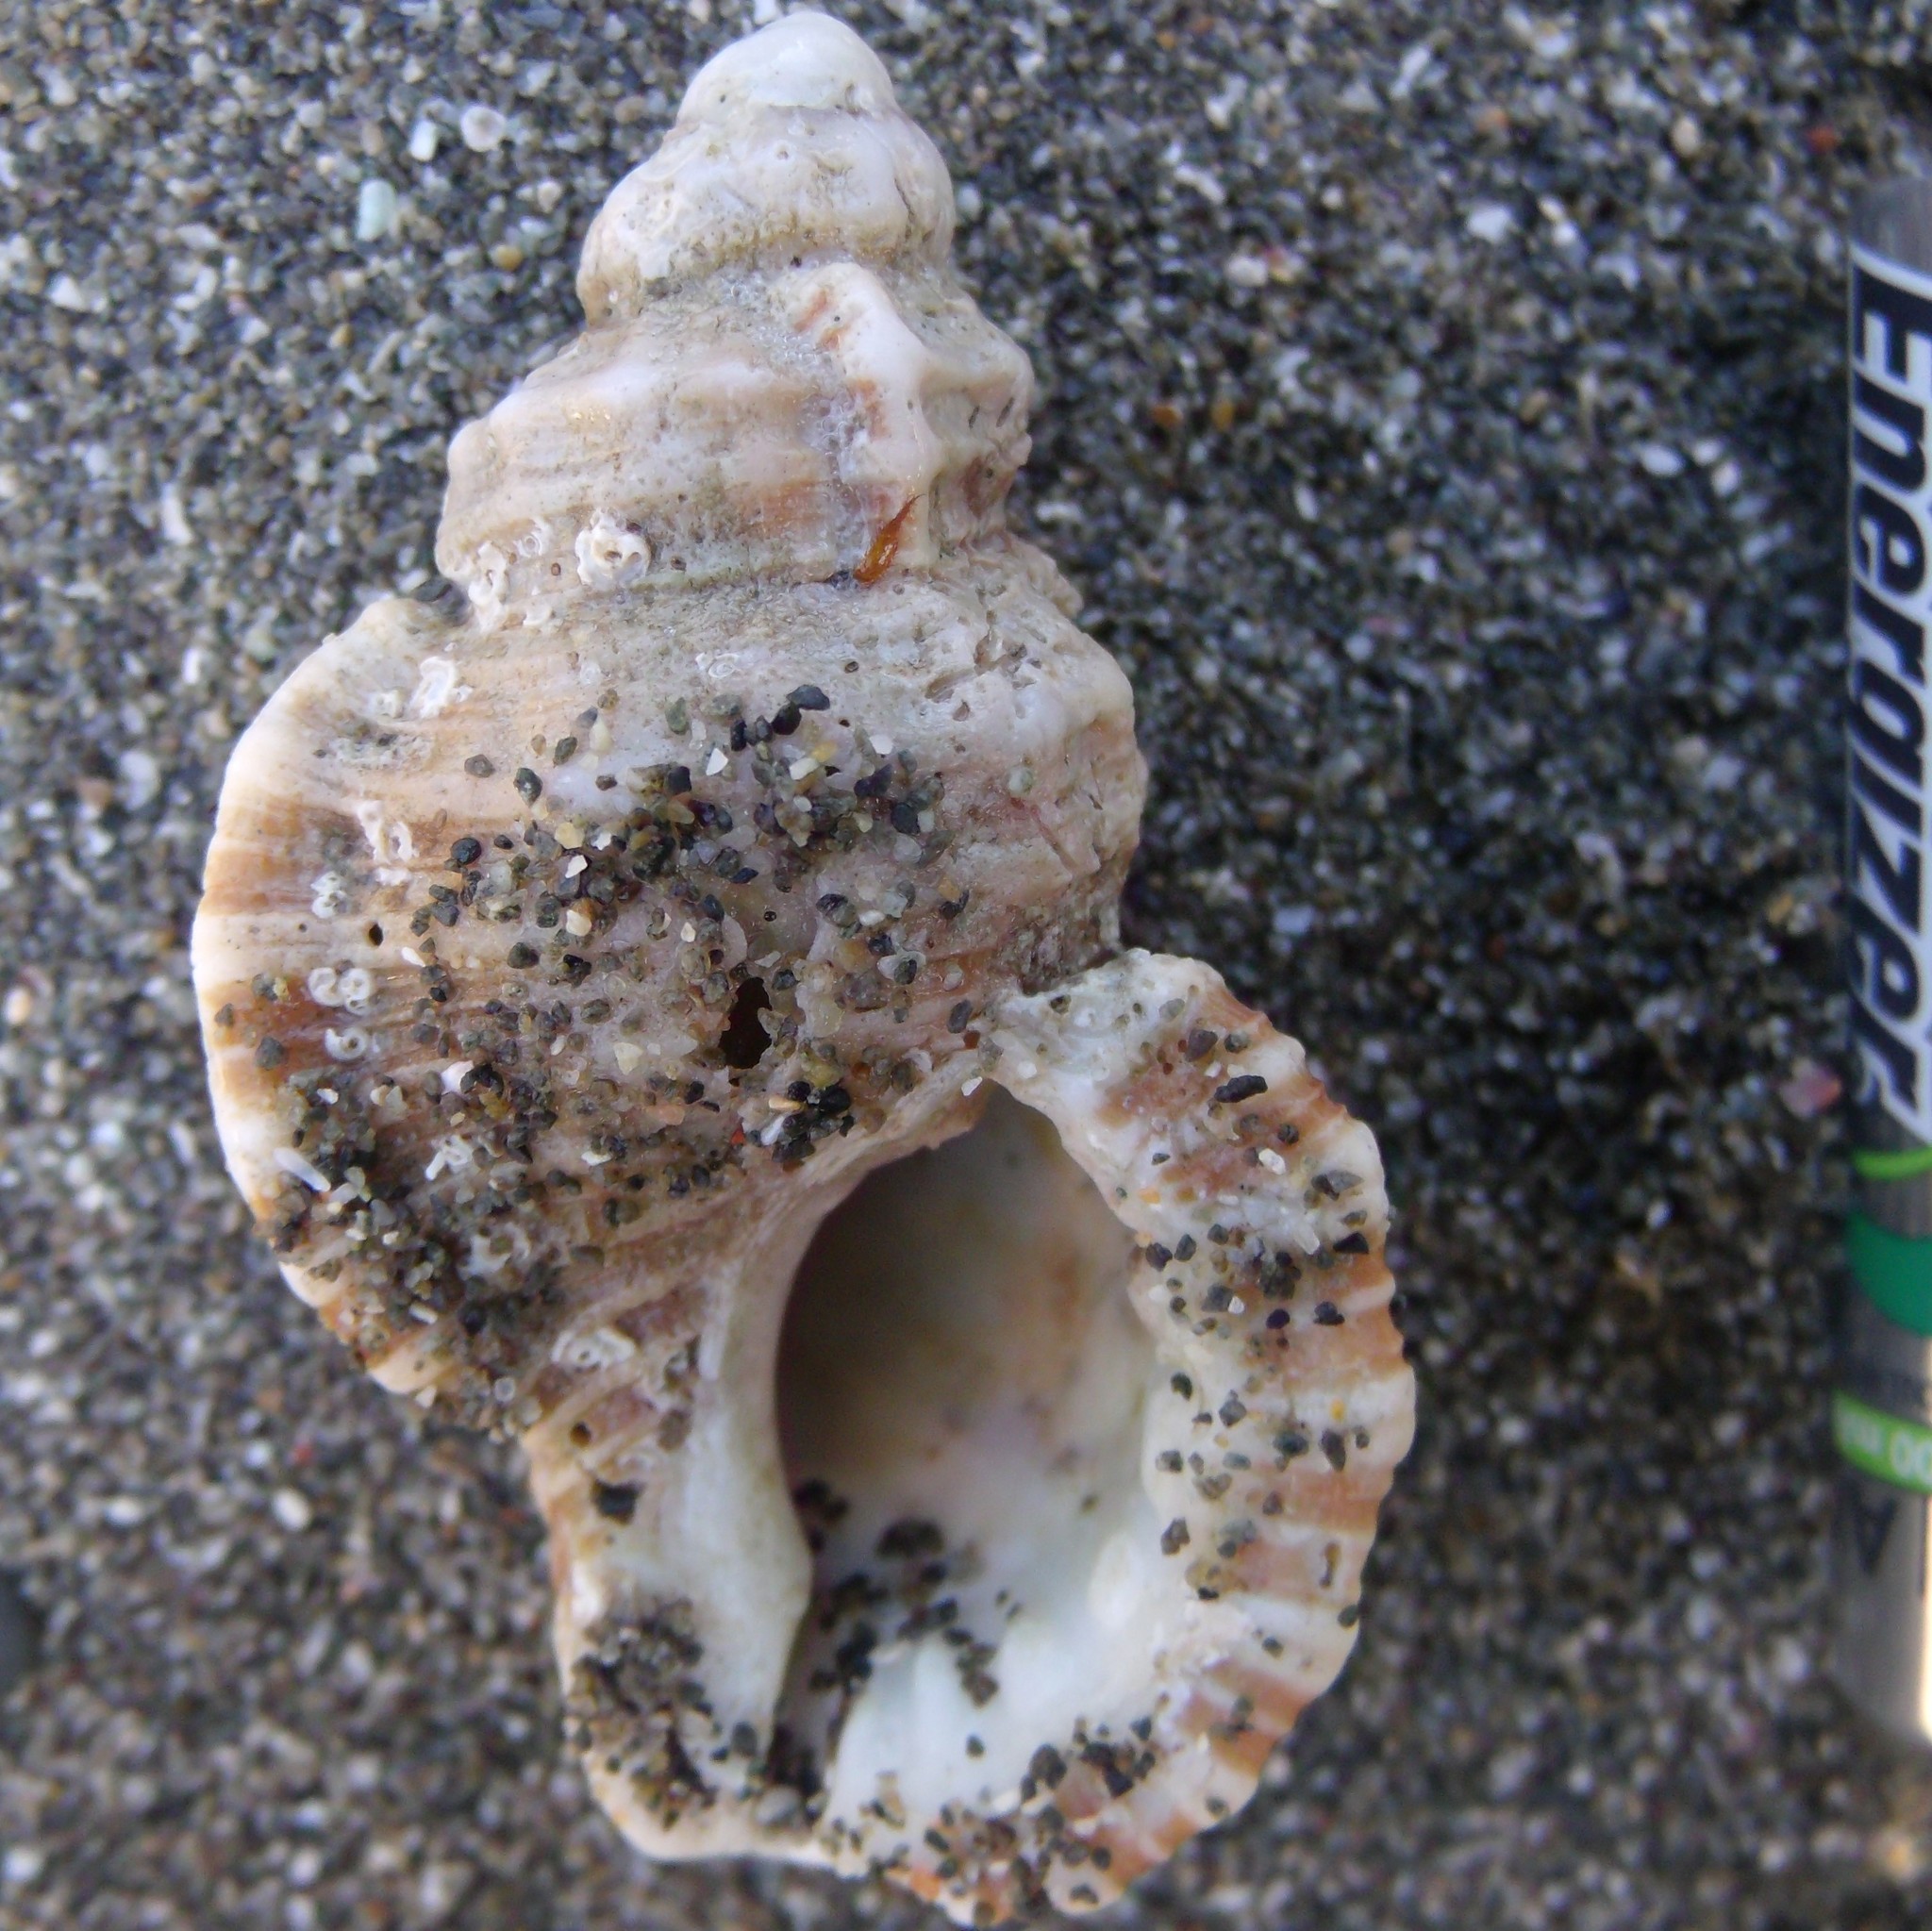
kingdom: Animalia
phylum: Mollusca
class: Gastropoda
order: Littorinimorpha
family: Cymatiidae
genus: Cabestana
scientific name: Cabestana tabulata
